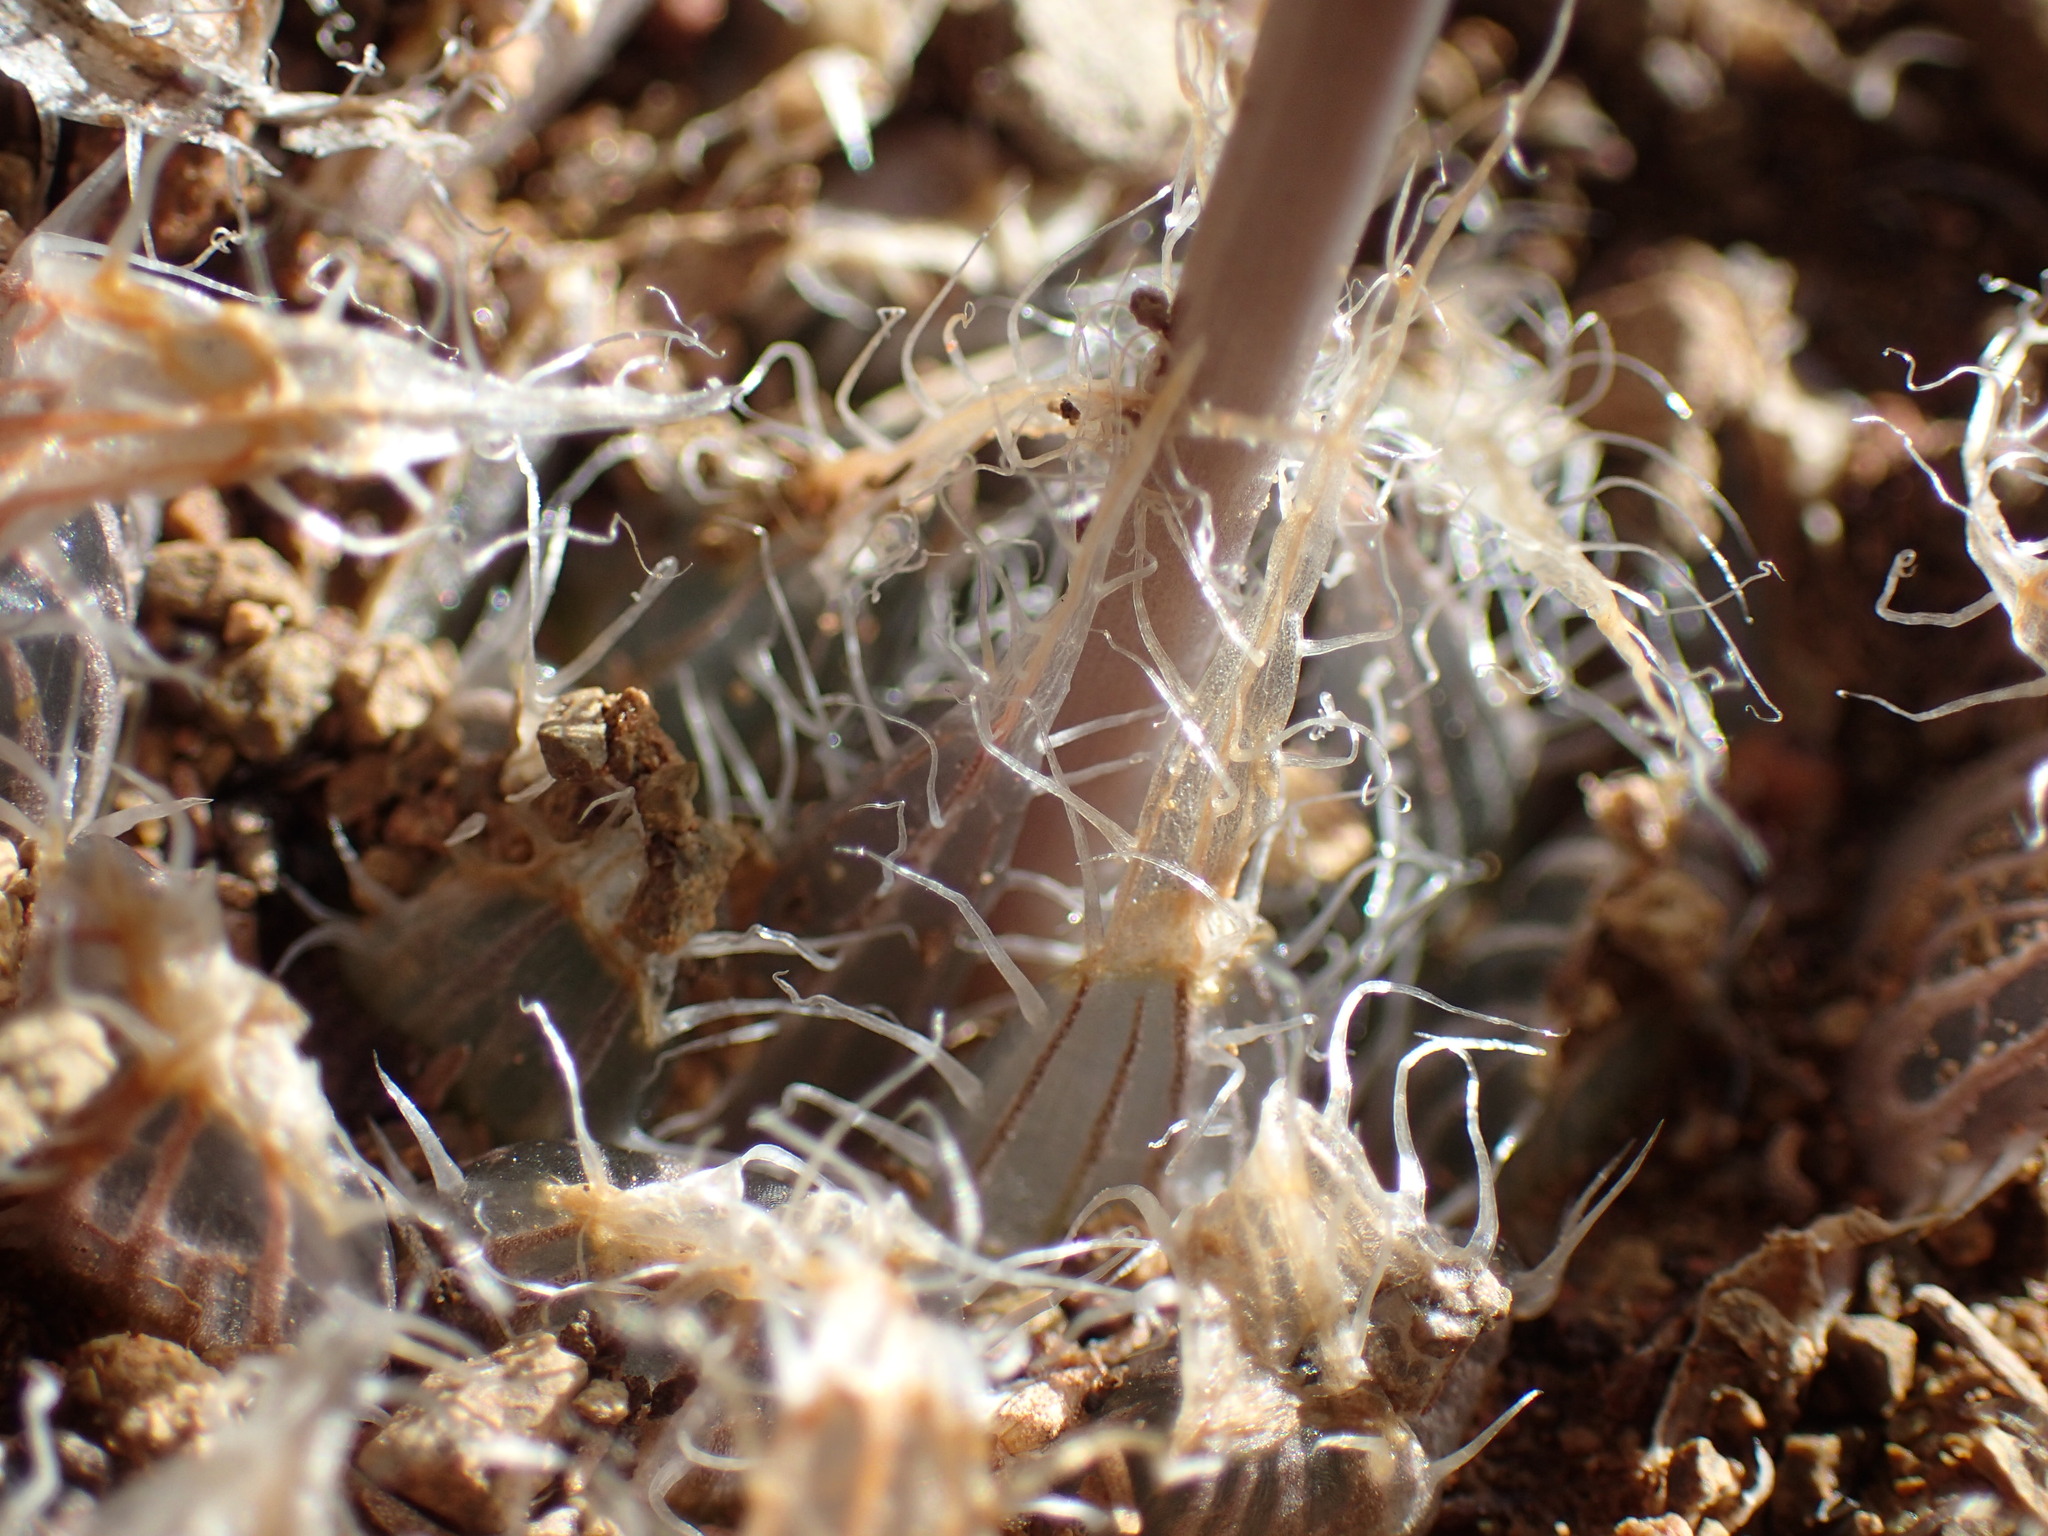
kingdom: Plantae
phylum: Tracheophyta
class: Liliopsida
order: Asparagales
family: Asphodelaceae
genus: Haworthia
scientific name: Haworthia bolusii
